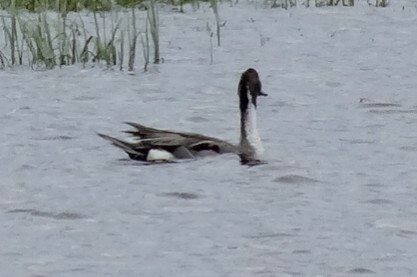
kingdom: Animalia
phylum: Chordata
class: Aves
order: Anseriformes
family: Anatidae
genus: Anas
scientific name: Anas acuta
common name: Northern pintail
